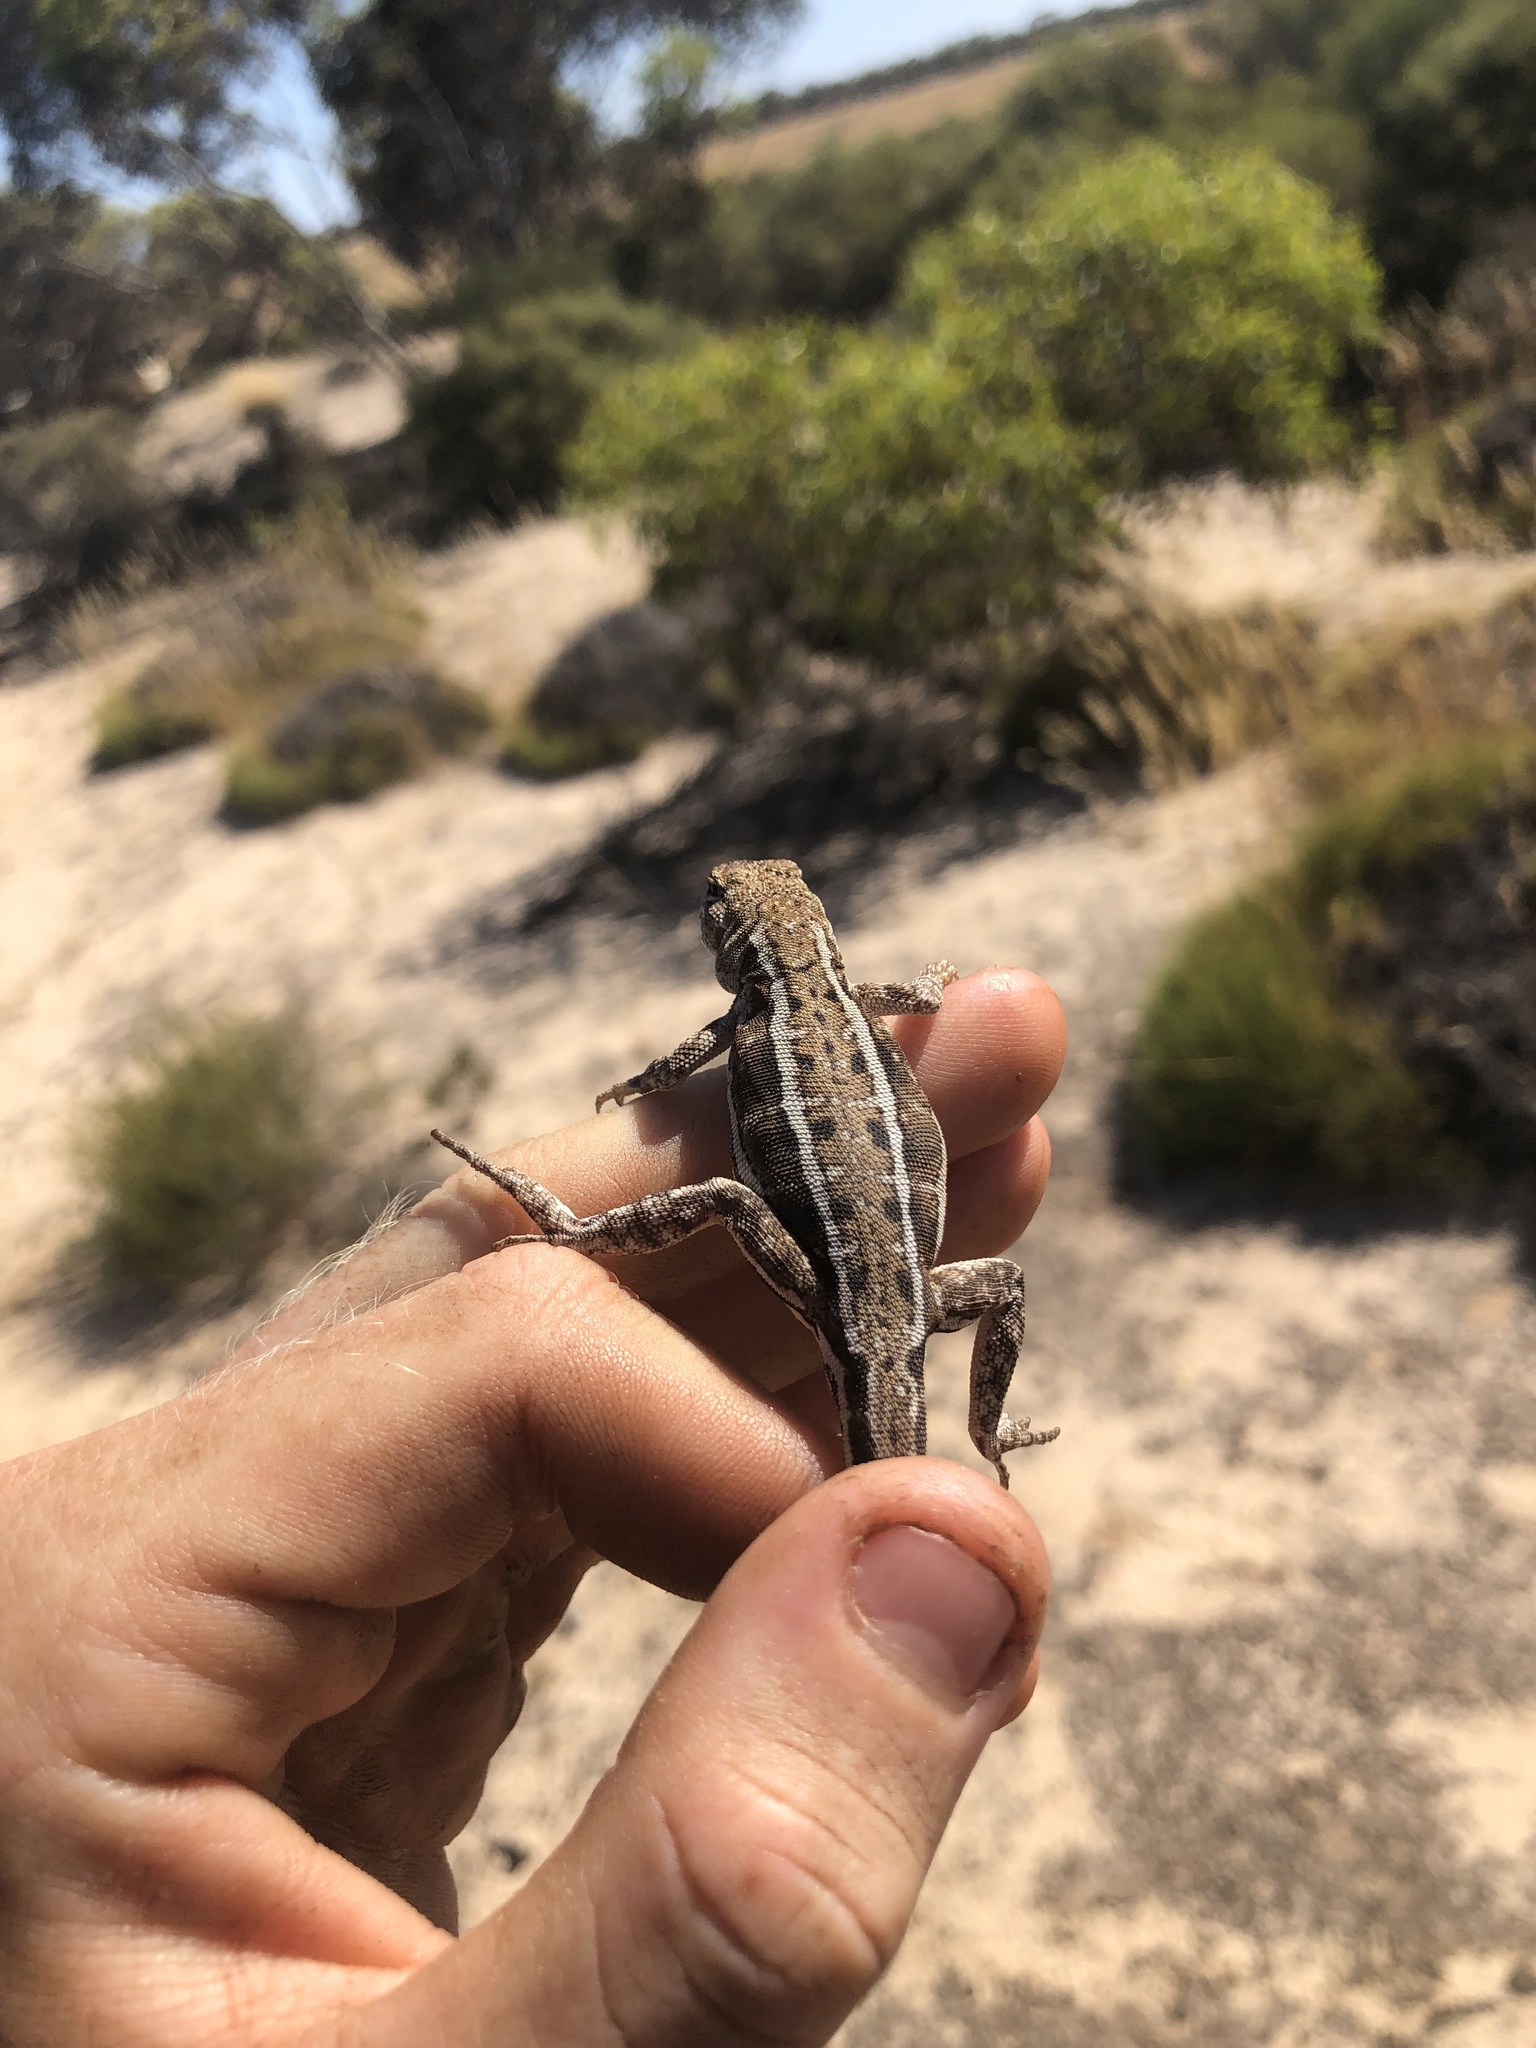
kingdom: Animalia
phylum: Chordata
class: Squamata
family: Agamidae
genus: Ctenophorus
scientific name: Ctenophorus
